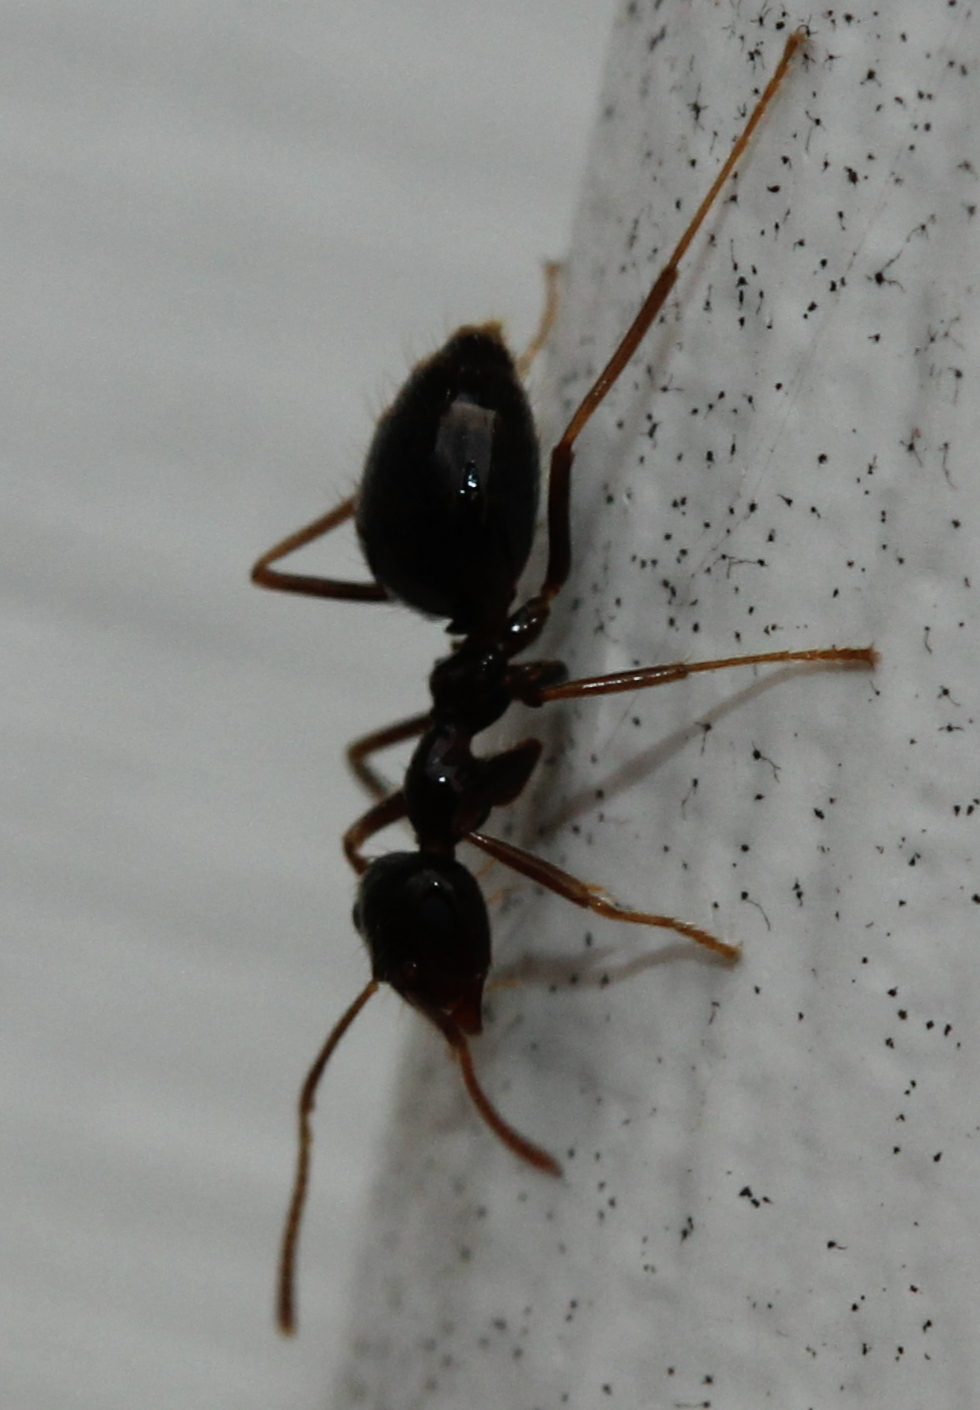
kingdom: Animalia
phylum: Arthropoda
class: Insecta
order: Hymenoptera
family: Formicidae
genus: Prenolepis
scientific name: Prenolepis imparis
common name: Small honey ant
